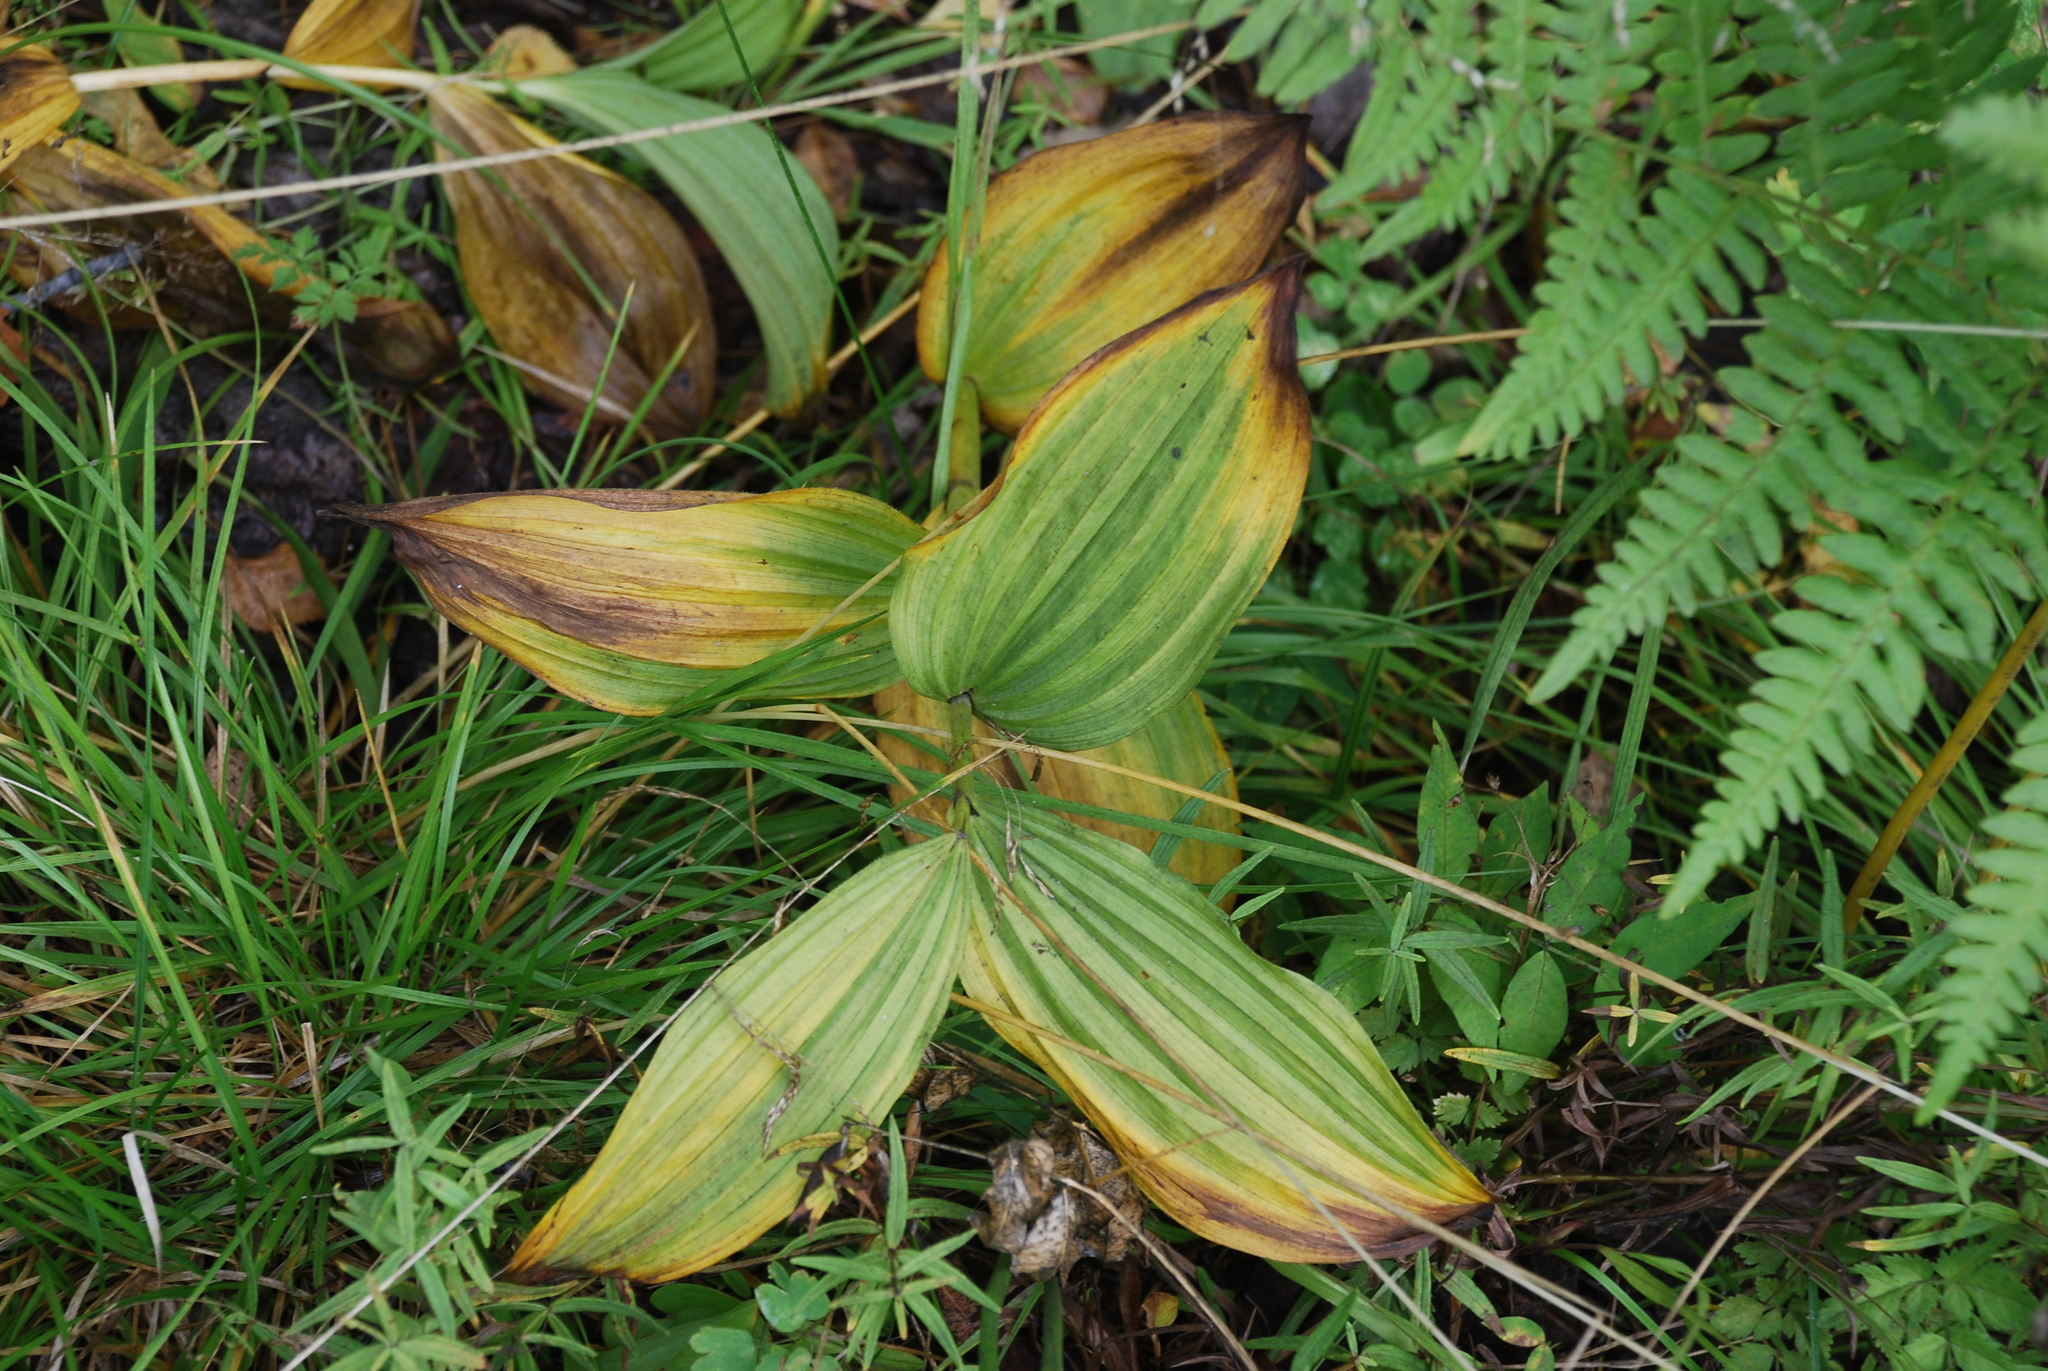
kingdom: Plantae
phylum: Tracheophyta
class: Liliopsida
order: Liliales
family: Melanthiaceae
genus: Veratrum
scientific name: Veratrum lobelianum
